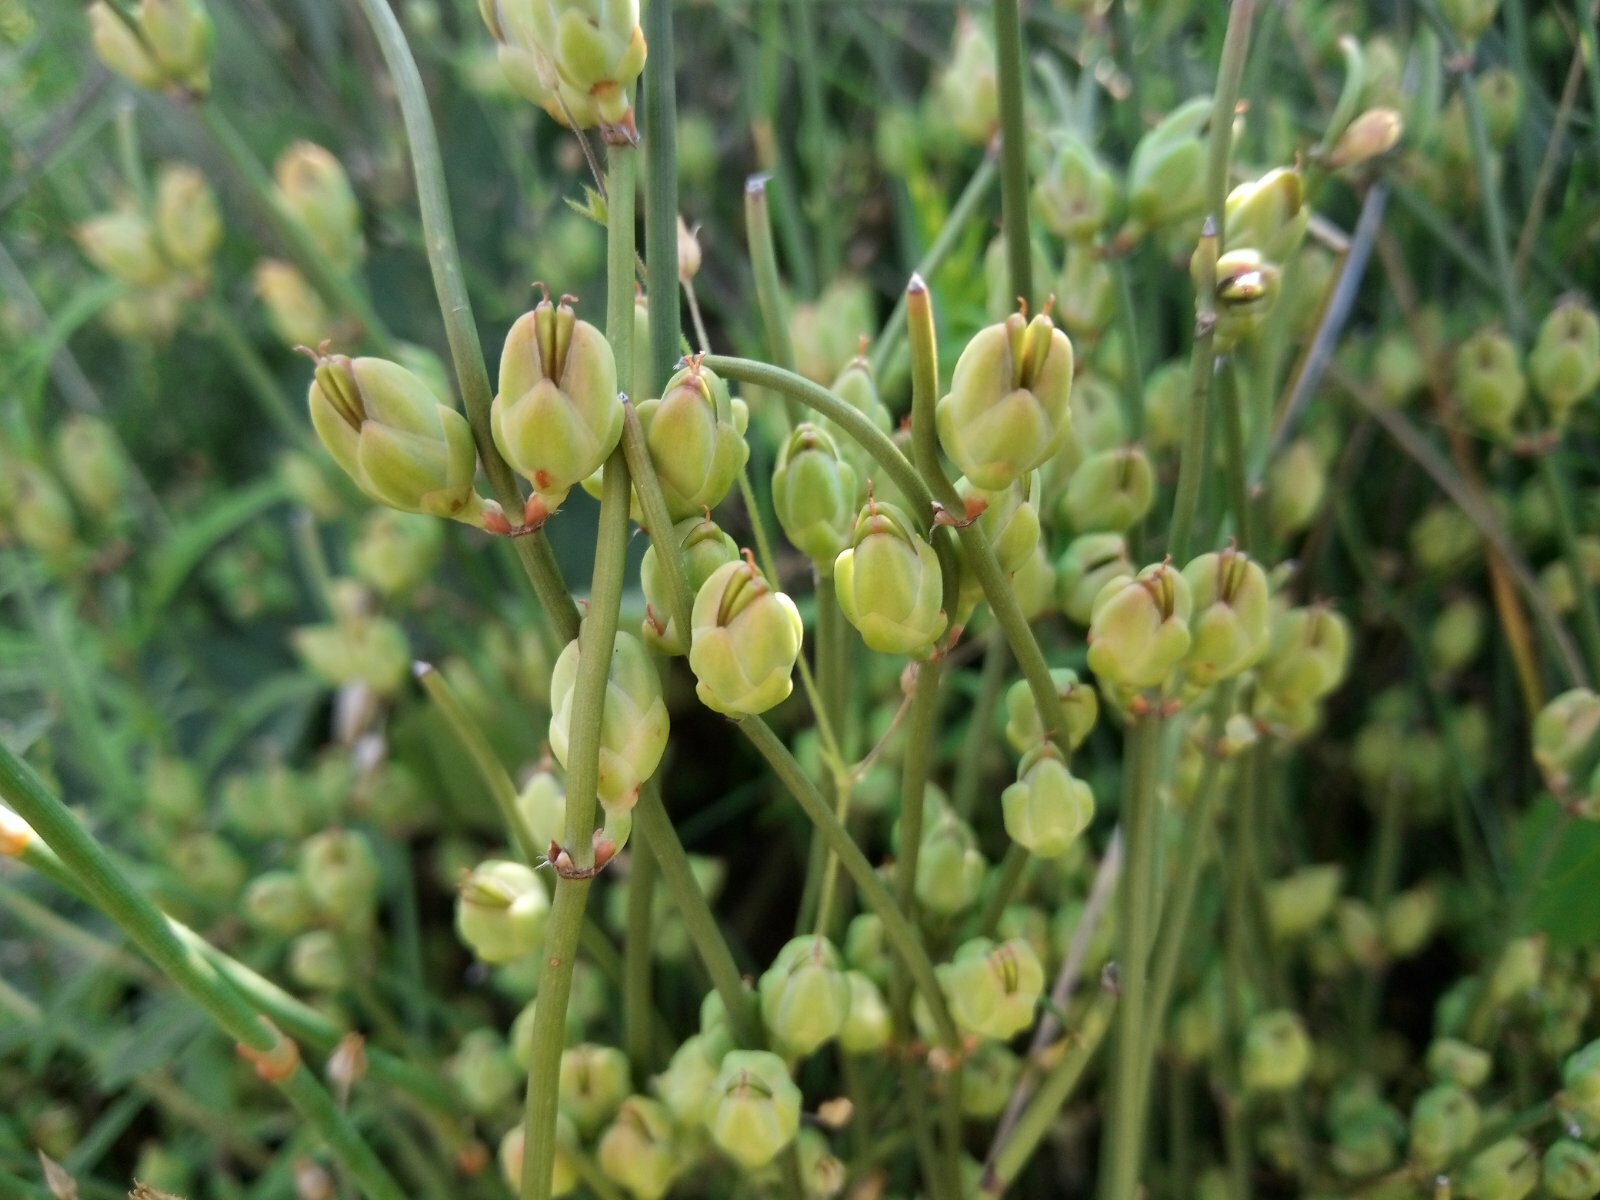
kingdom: Plantae
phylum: Tracheophyta
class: Gnetopsida
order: Ephedrales
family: Ephedraceae
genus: Ephedra
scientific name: Ephedra distachya
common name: Sea grape
